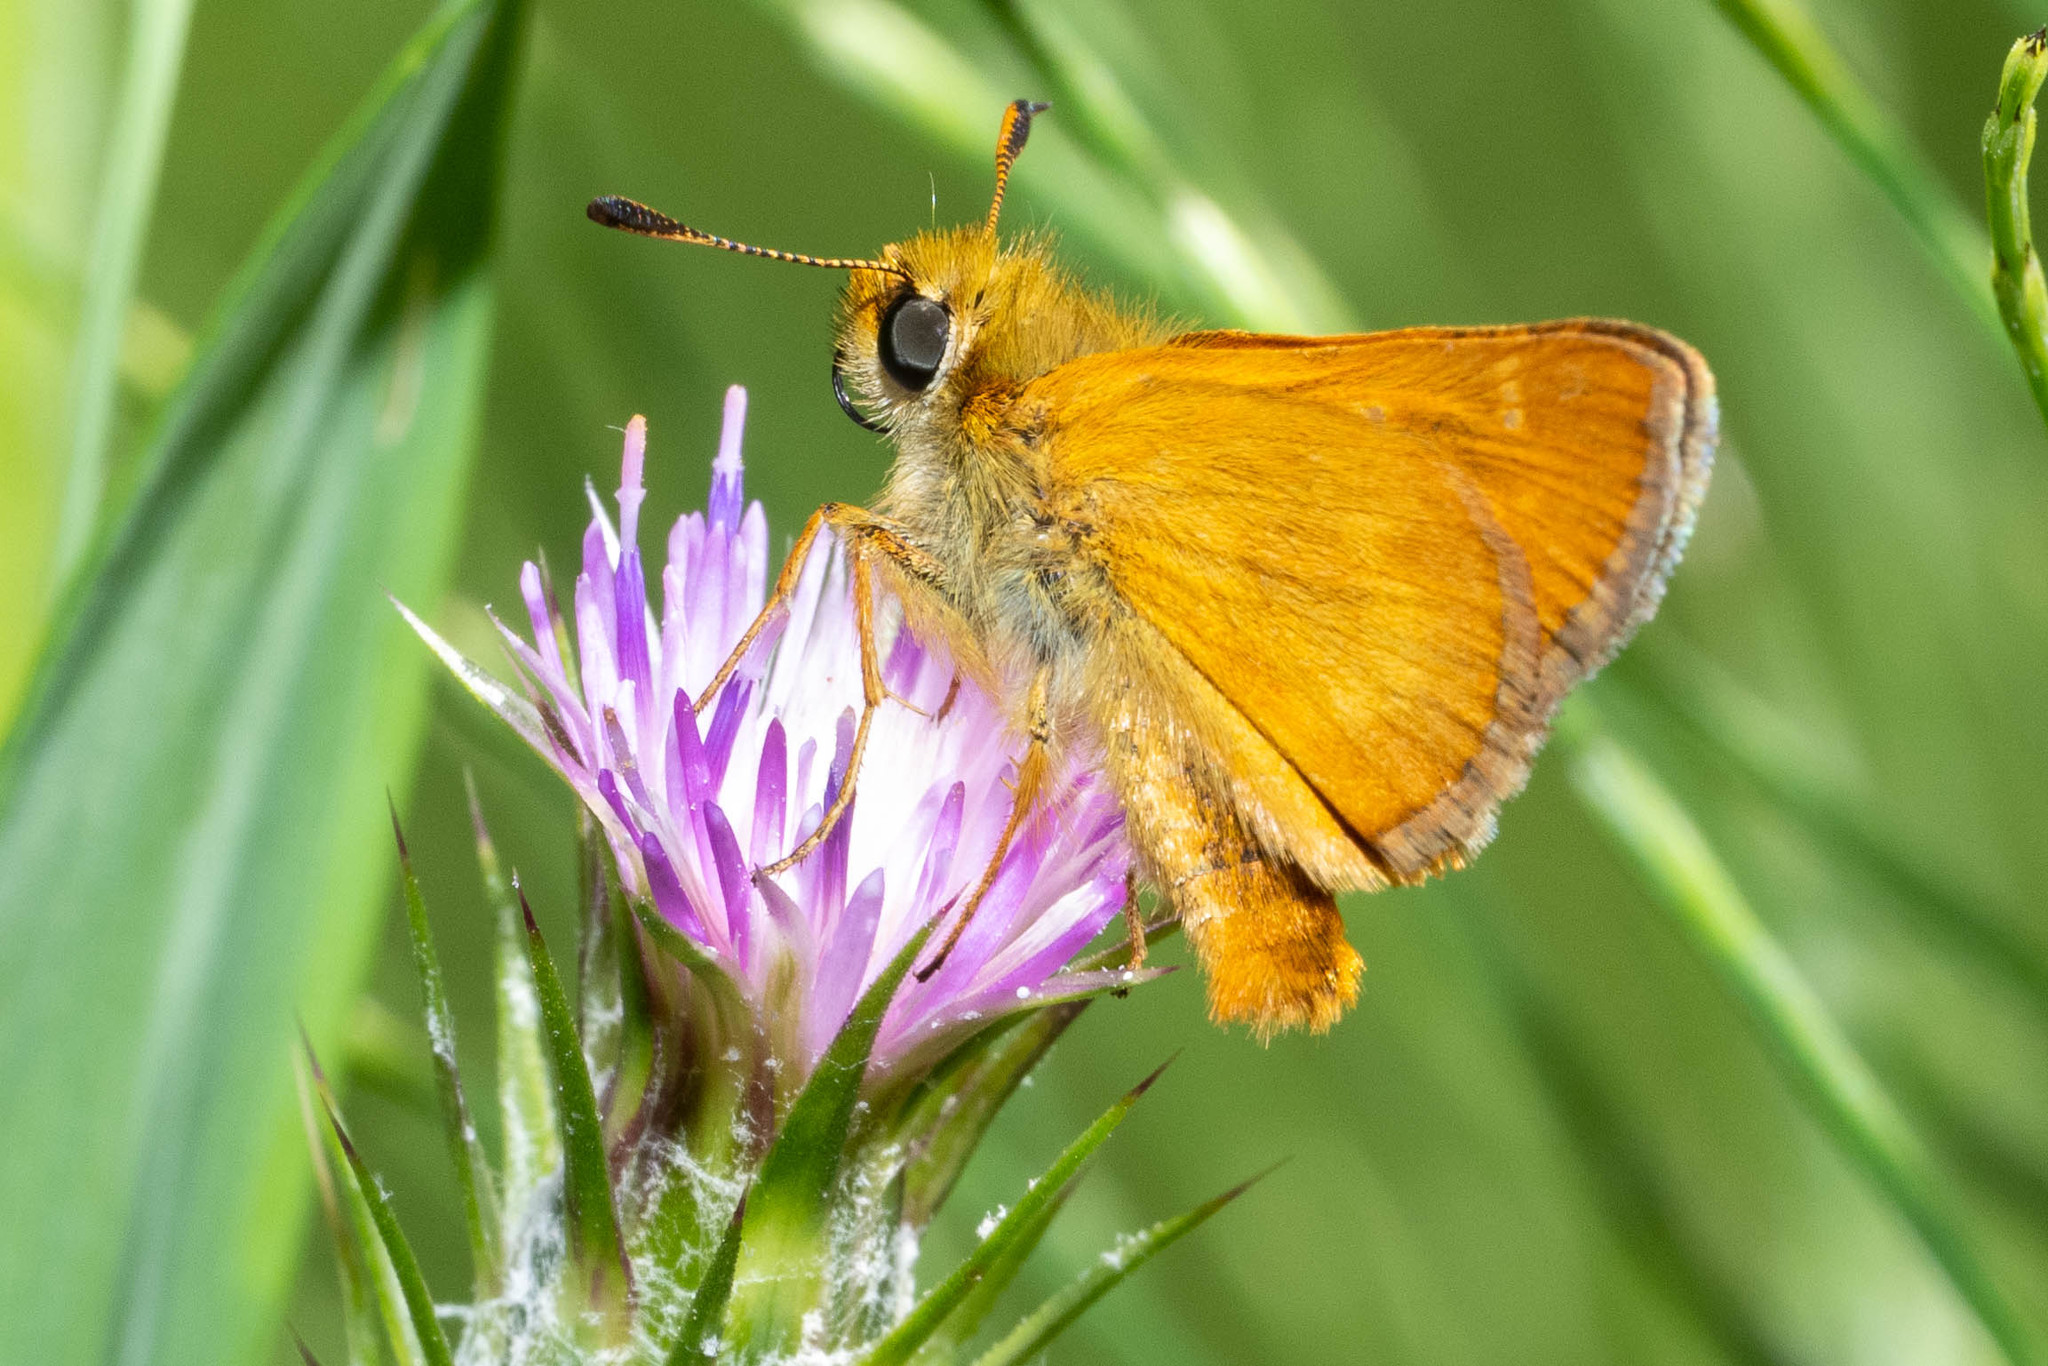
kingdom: Animalia
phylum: Arthropoda
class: Insecta
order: Lepidoptera
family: Hesperiidae
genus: Ochlodes
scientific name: Ochlodes agricola
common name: Rural skipper
